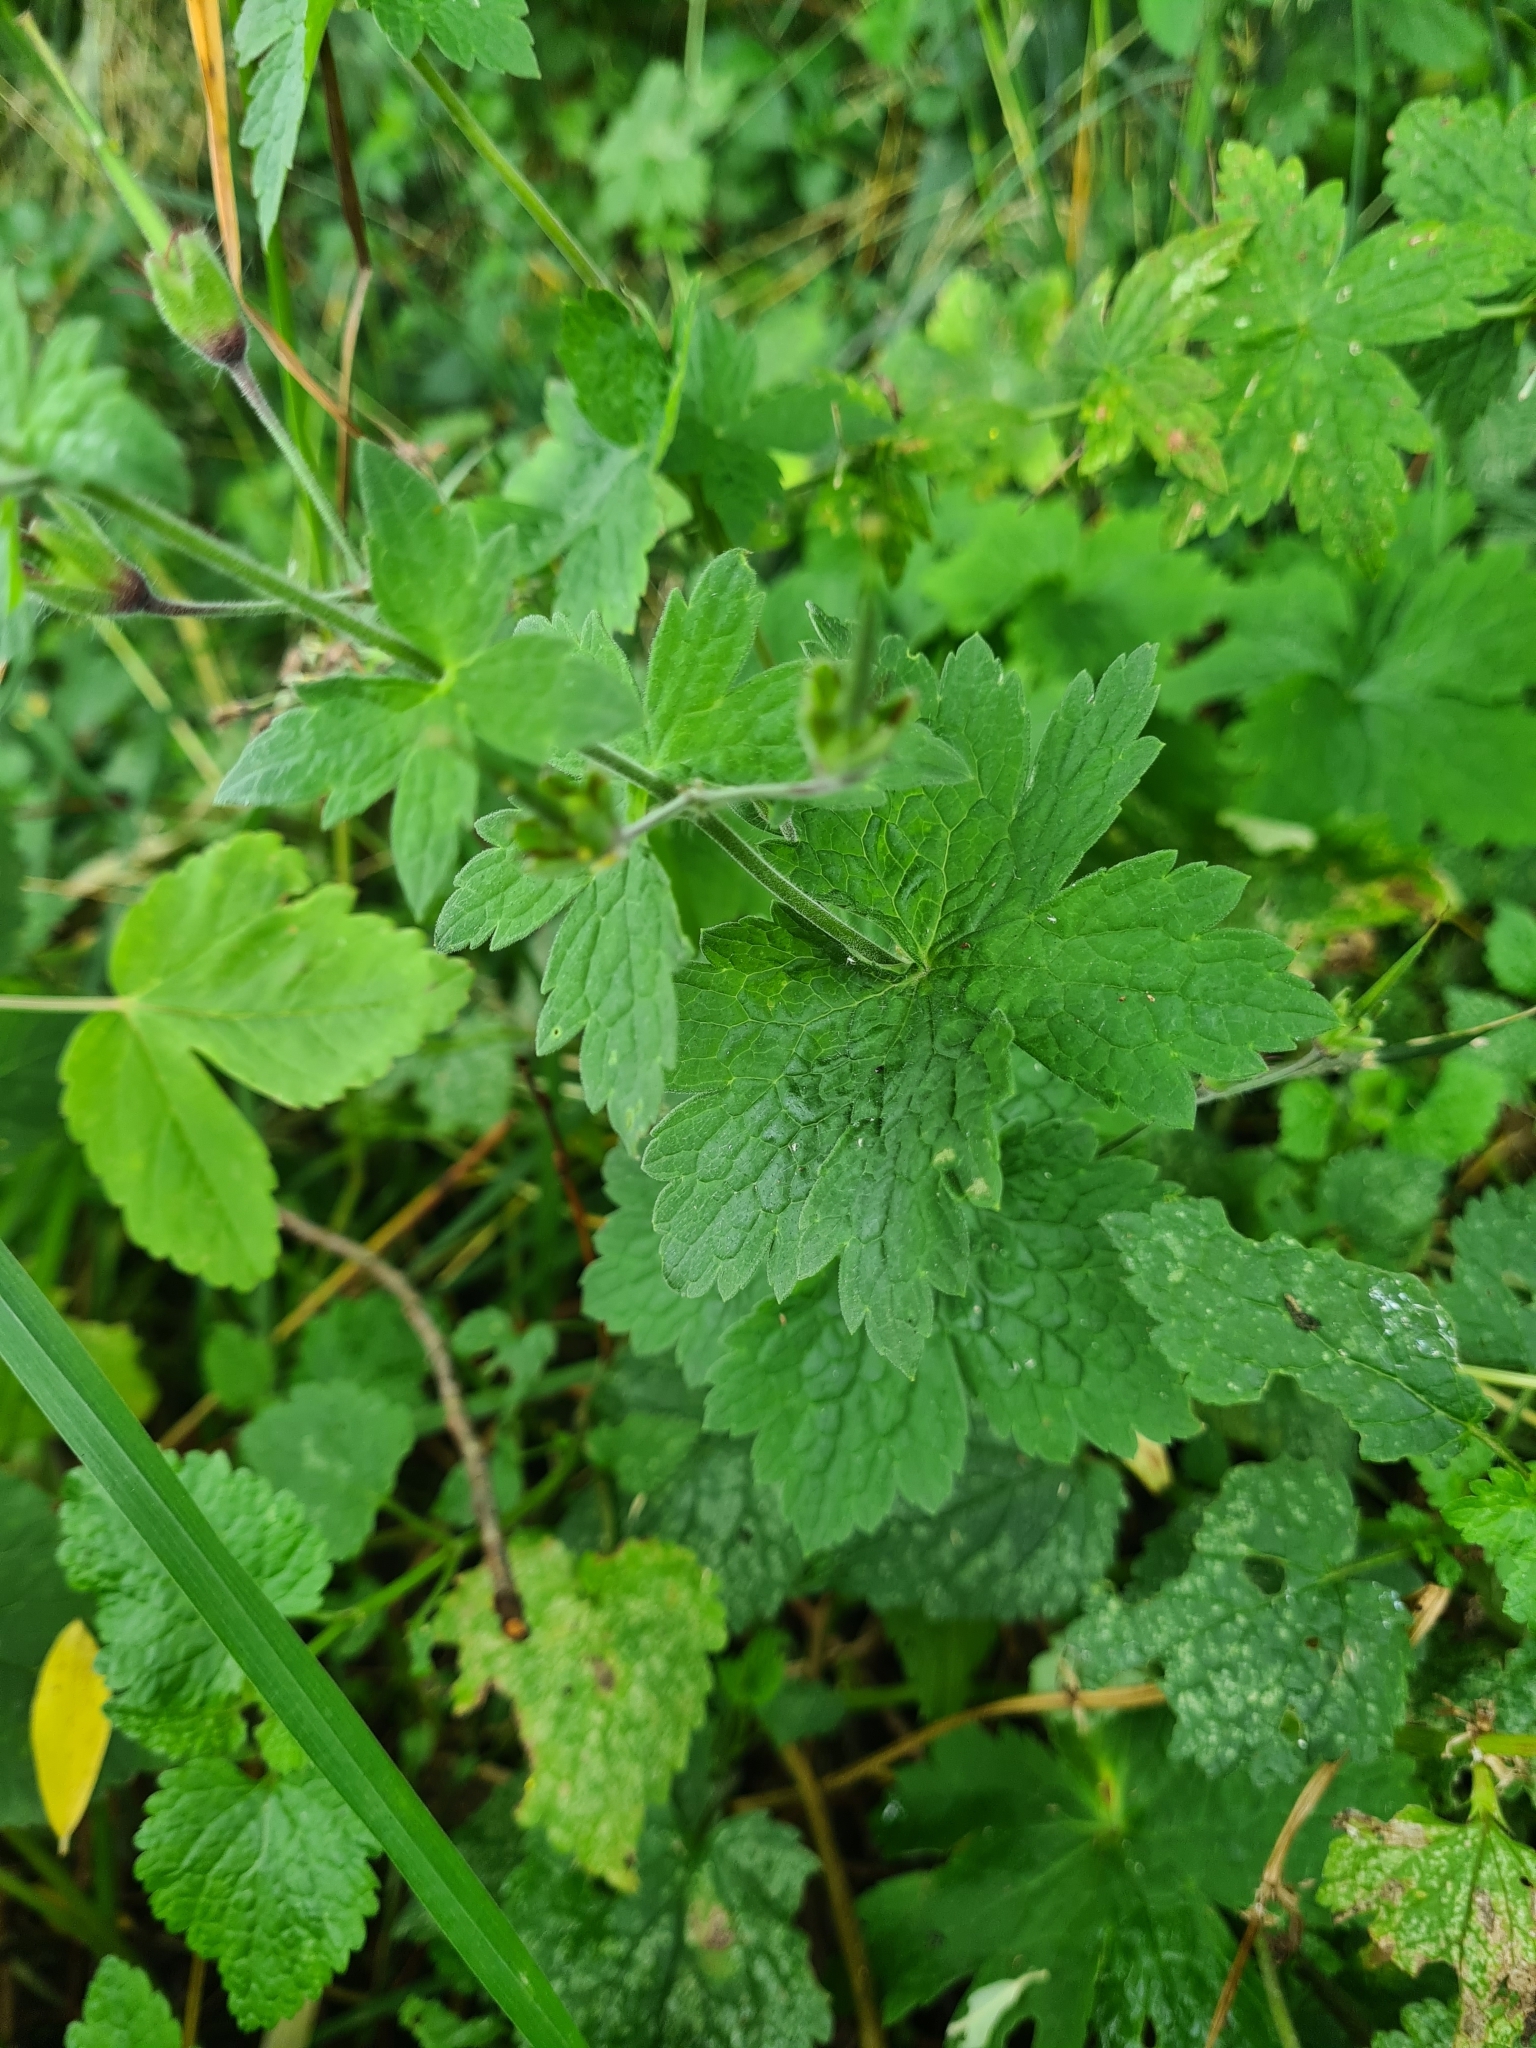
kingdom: Plantae
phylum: Tracheophyta
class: Magnoliopsida
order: Geraniales
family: Geraniaceae
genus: Geranium
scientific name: Geranium phaeum
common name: Dusky crane's-bill
